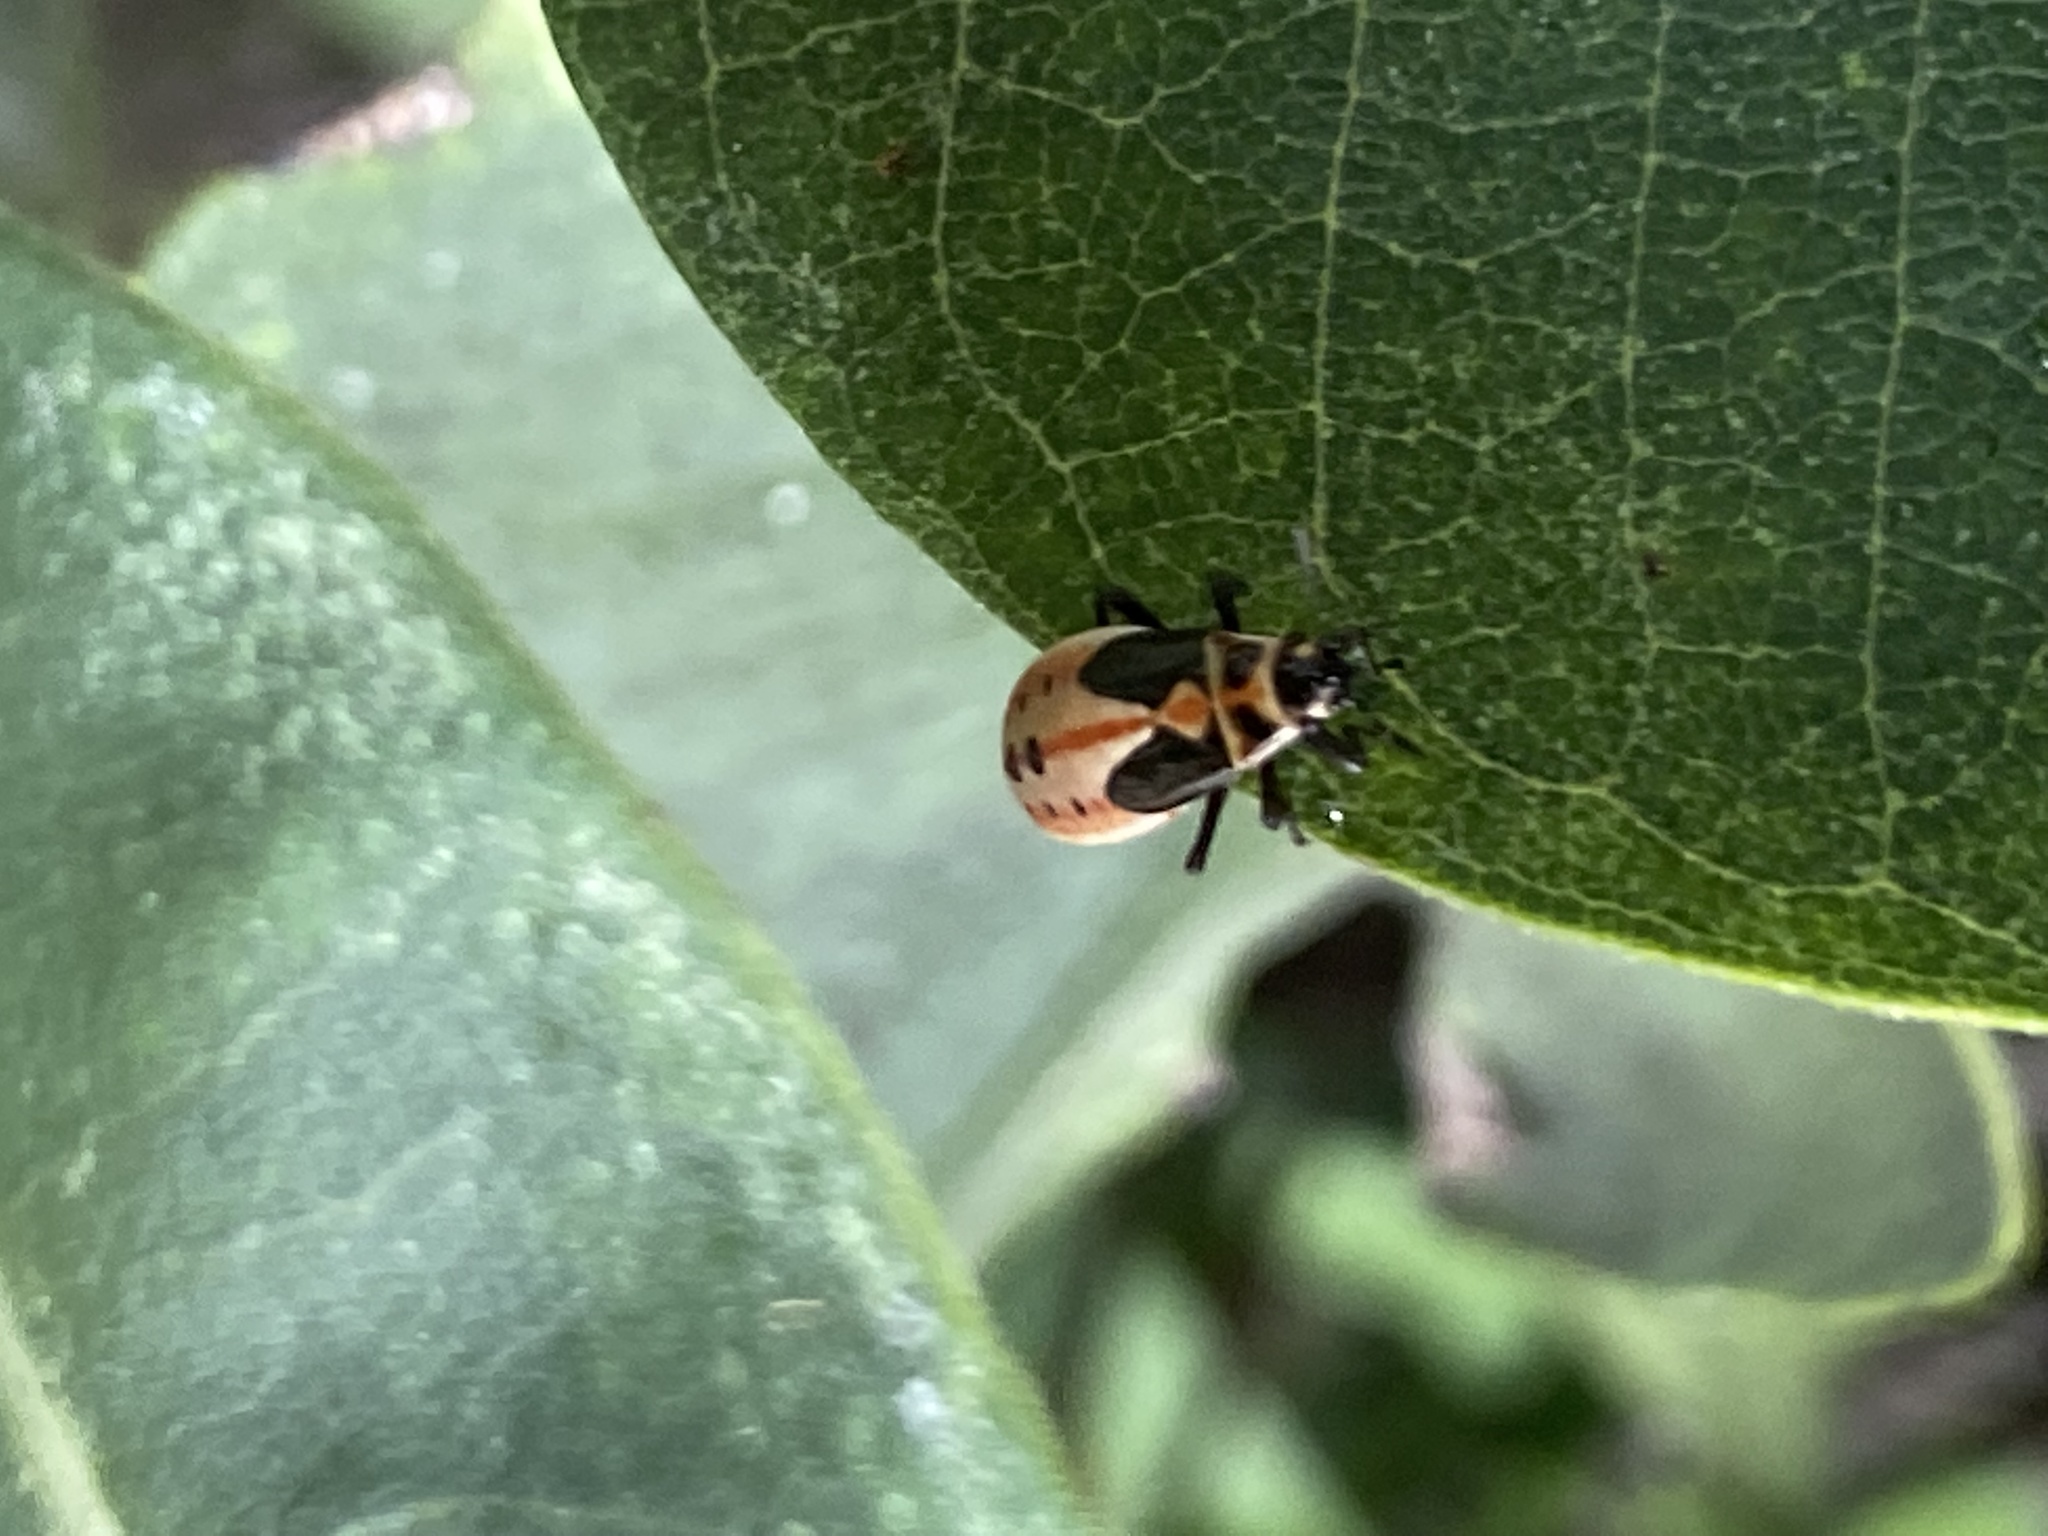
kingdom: Animalia
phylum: Arthropoda
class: Insecta
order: Hemiptera
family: Lygaeidae
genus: Lygaeus
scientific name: Lygaeus kalmii
